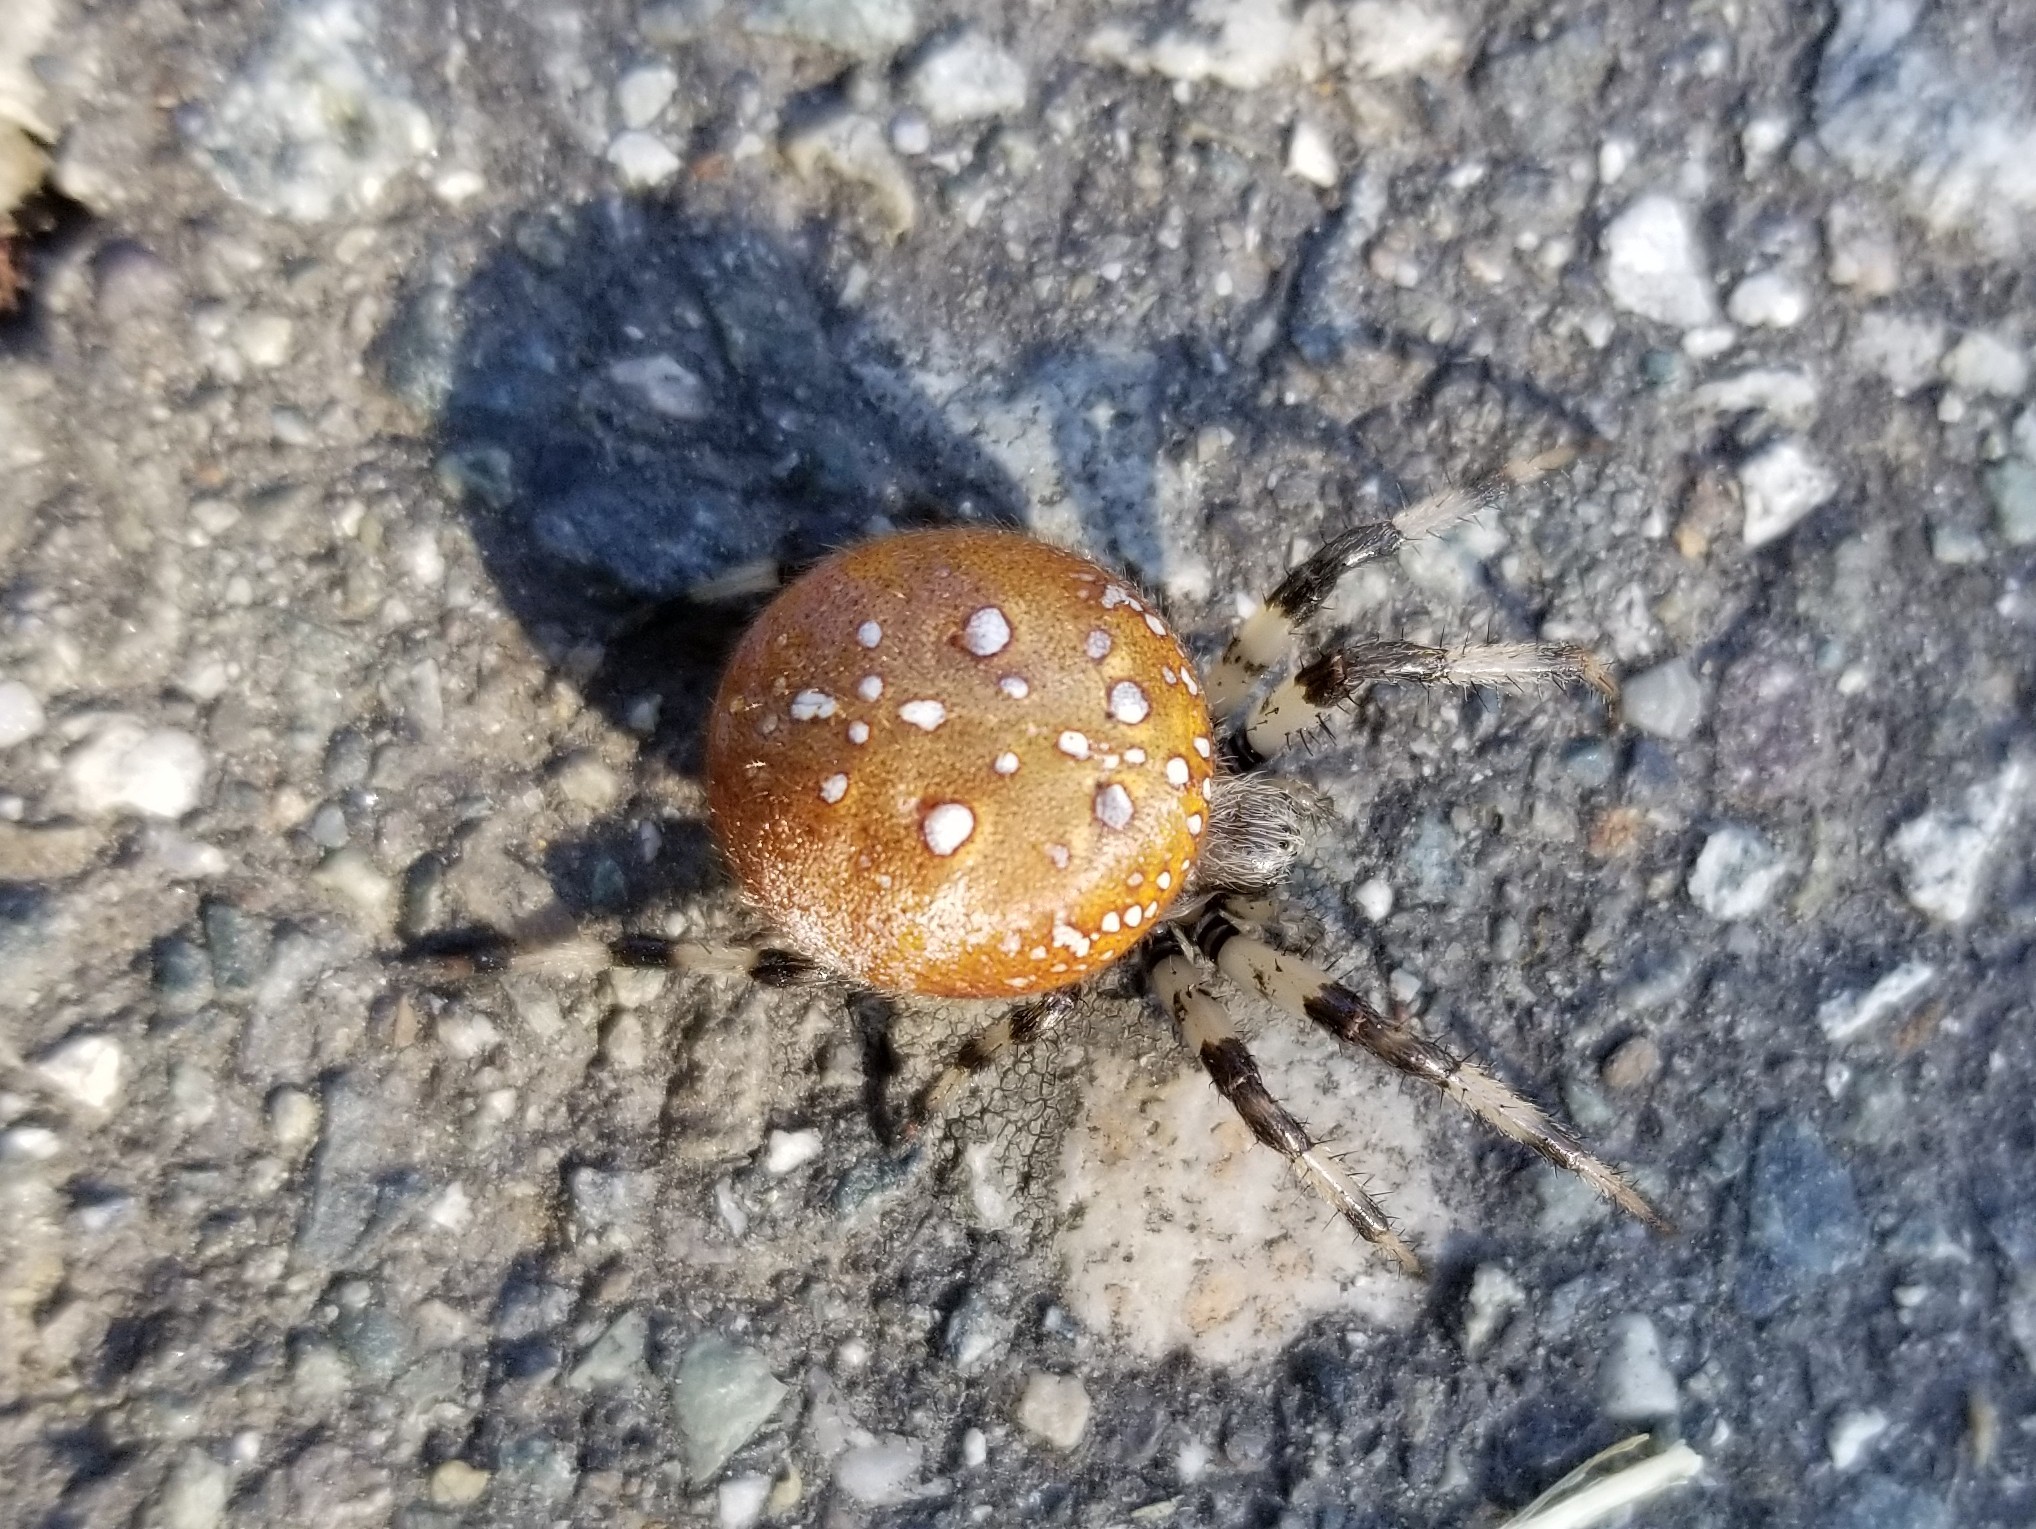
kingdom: Animalia
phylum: Arthropoda
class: Arachnida
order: Araneae
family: Araneidae
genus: Araneus
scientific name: Araneus trifolium
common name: Shamrock orbweaver
